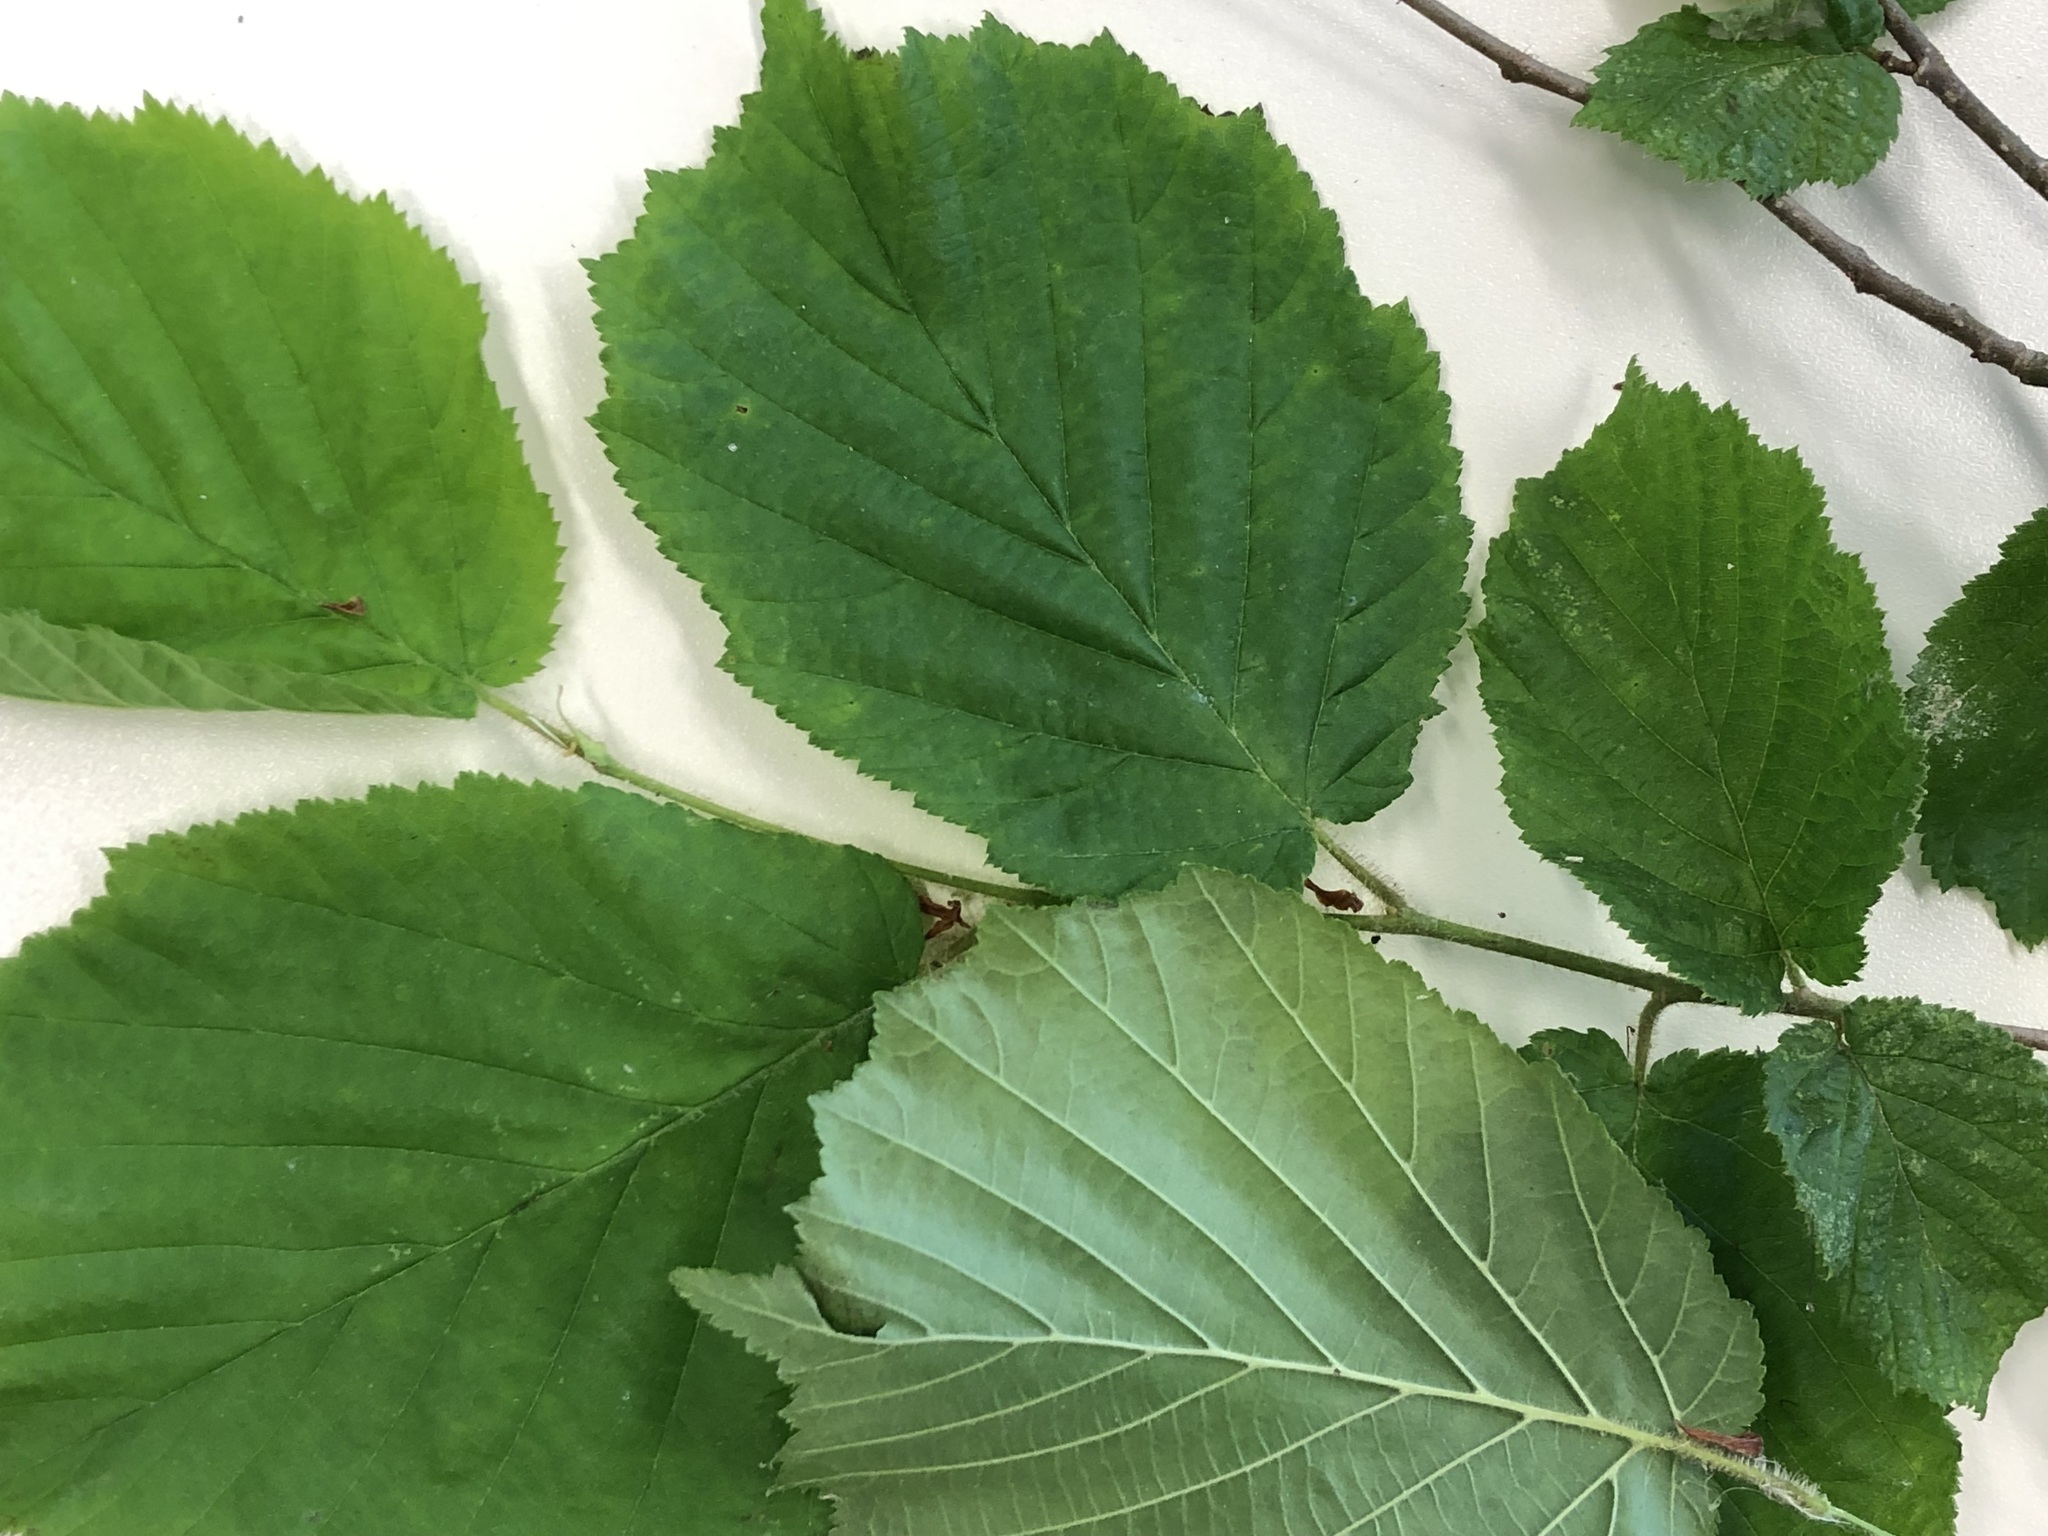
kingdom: Plantae
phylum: Tracheophyta
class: Magnoliopsida
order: Fagales
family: Betulaceae
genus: Corylus
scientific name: Corylus avellana
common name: European hazel
